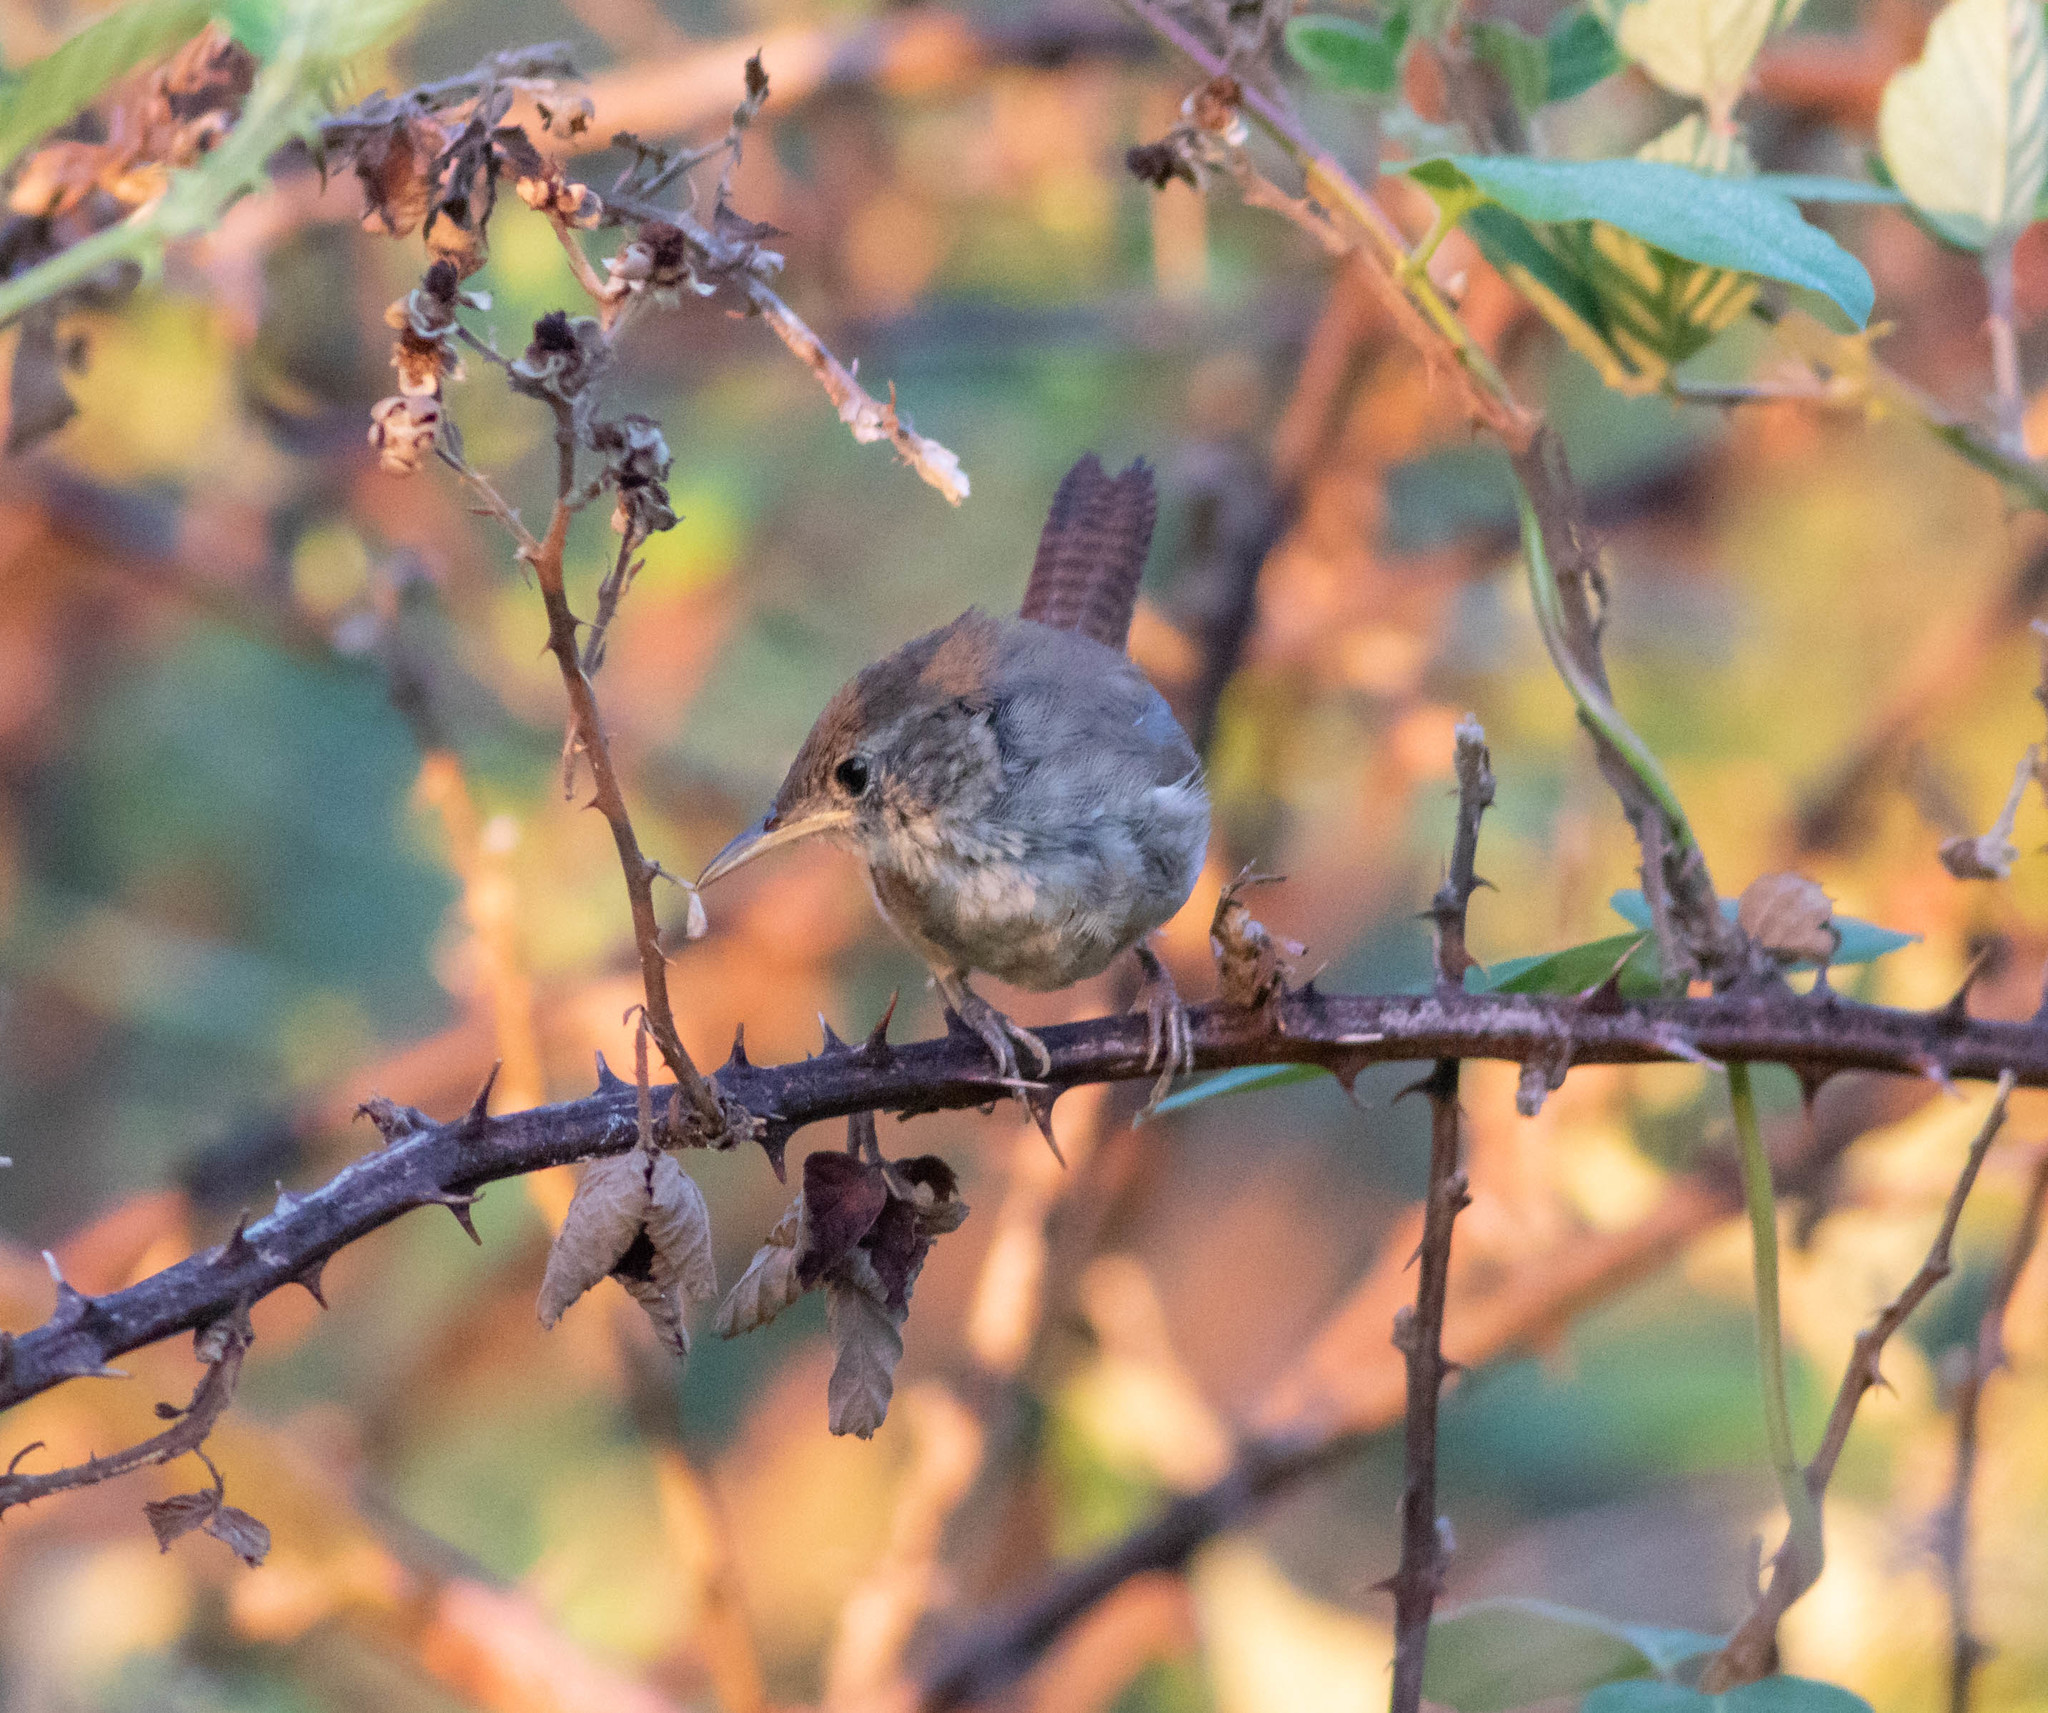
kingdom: Animalia
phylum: Chordata
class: Aves
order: Passeriformes
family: Troglodytidae
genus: Troglodytes
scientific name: Troglodytes aedon
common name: House wren
